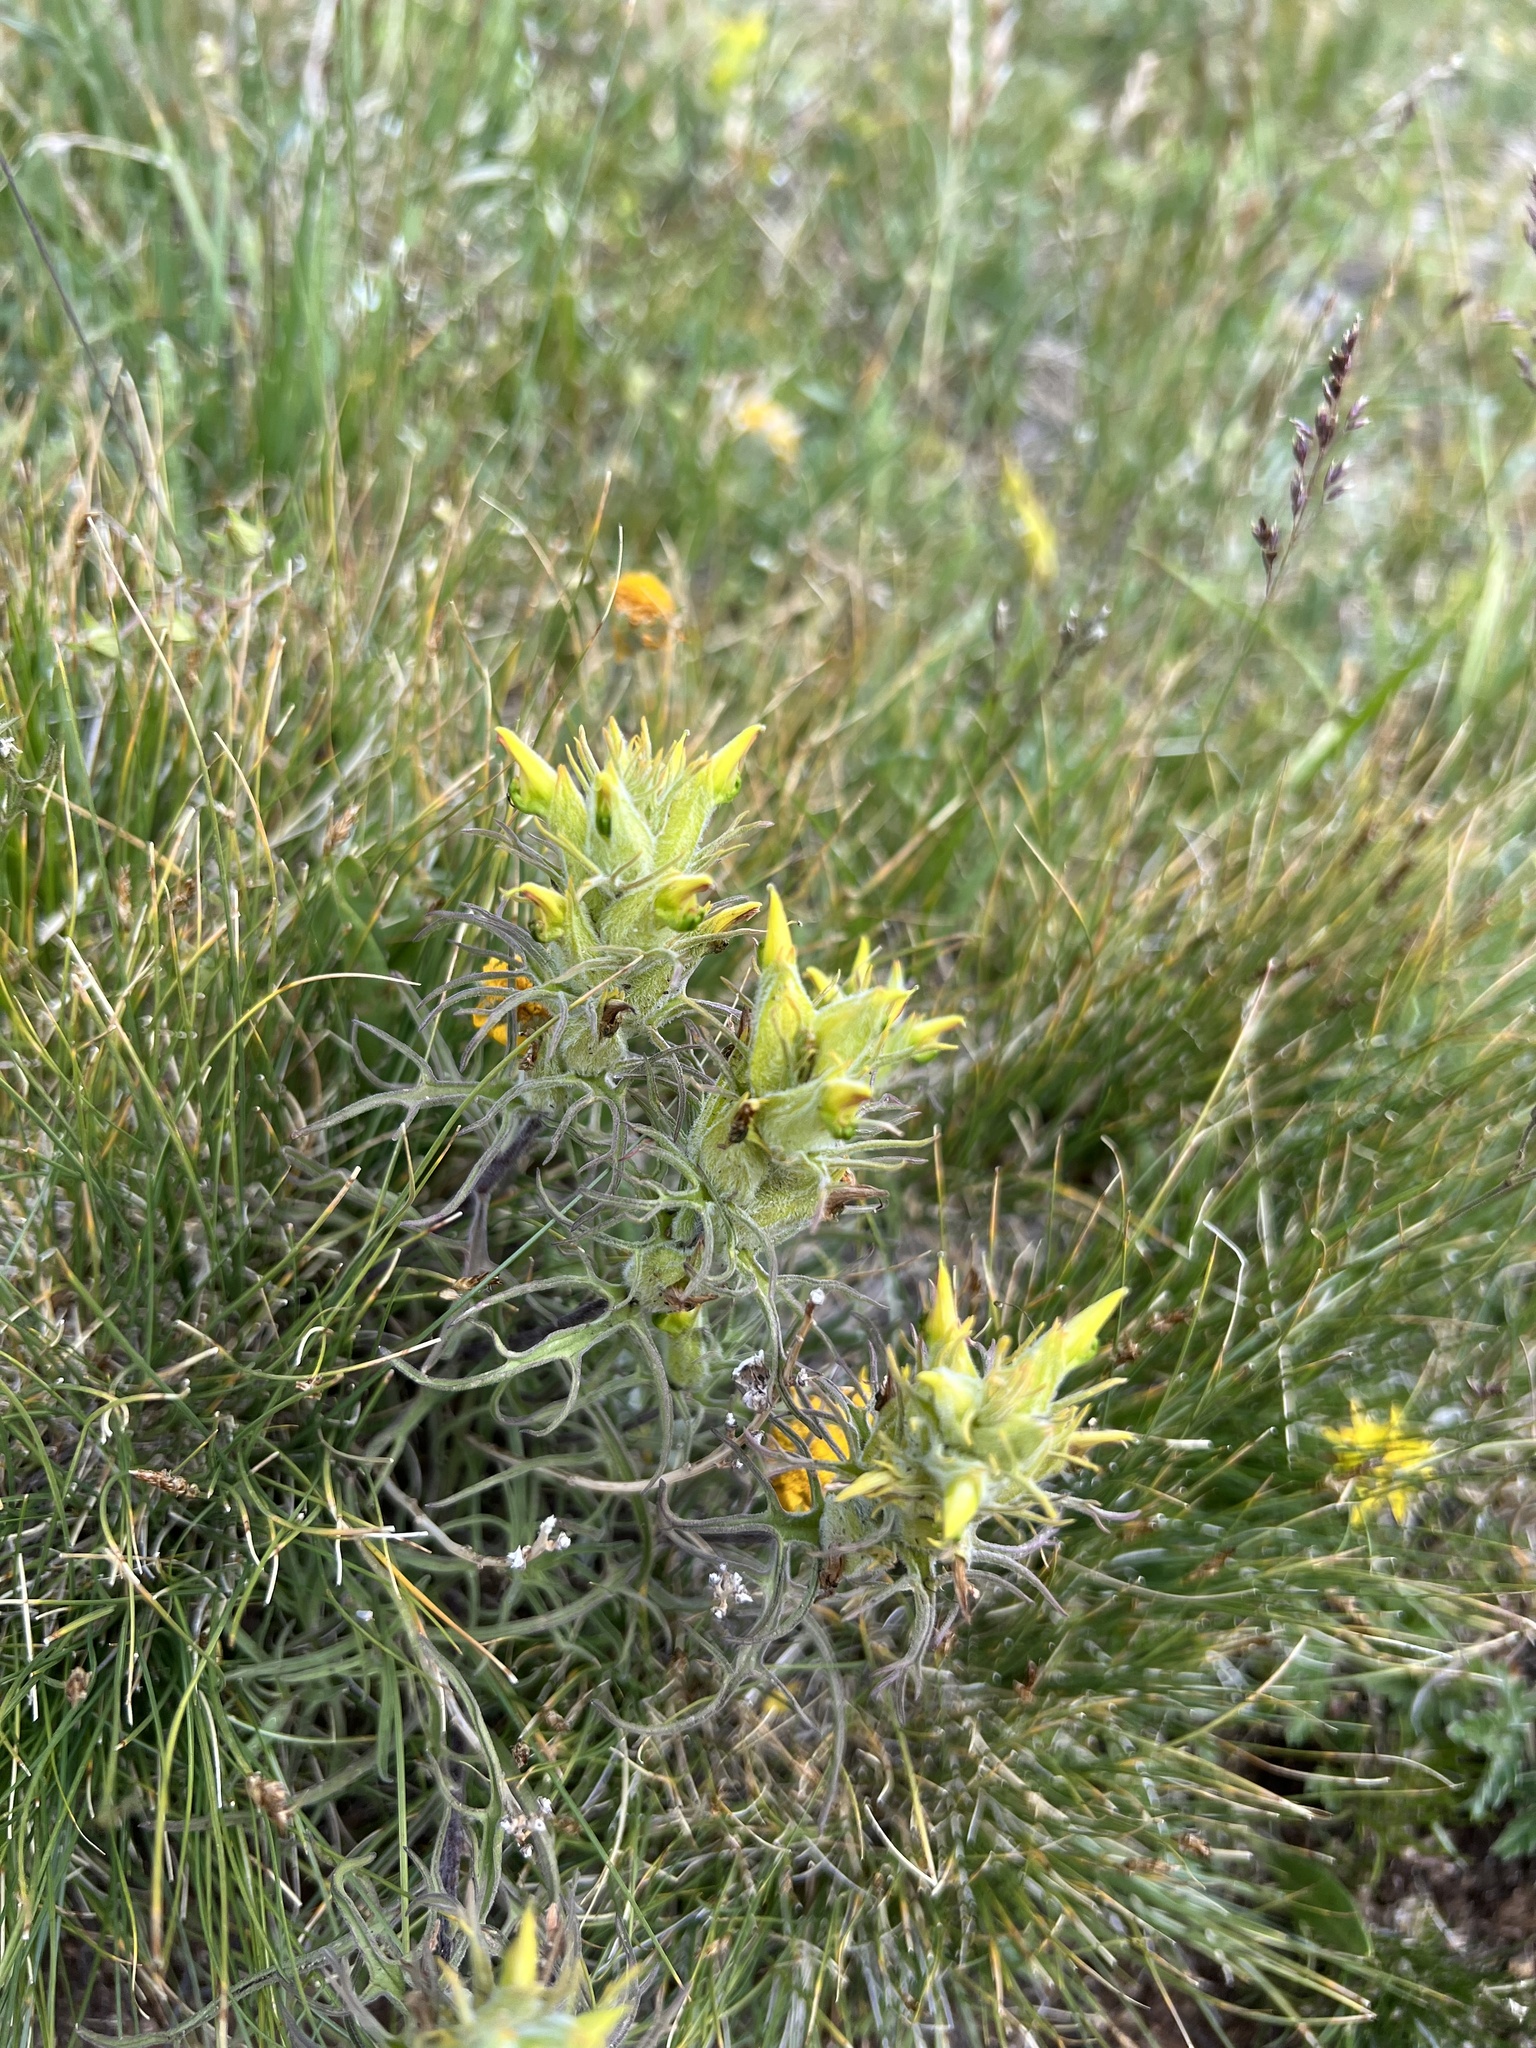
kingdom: Plantae
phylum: Tracheophyta
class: Magnoliopsida
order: Lamiales
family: Orobanchaceae
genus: Castilleja
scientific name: Castilleja puberula
